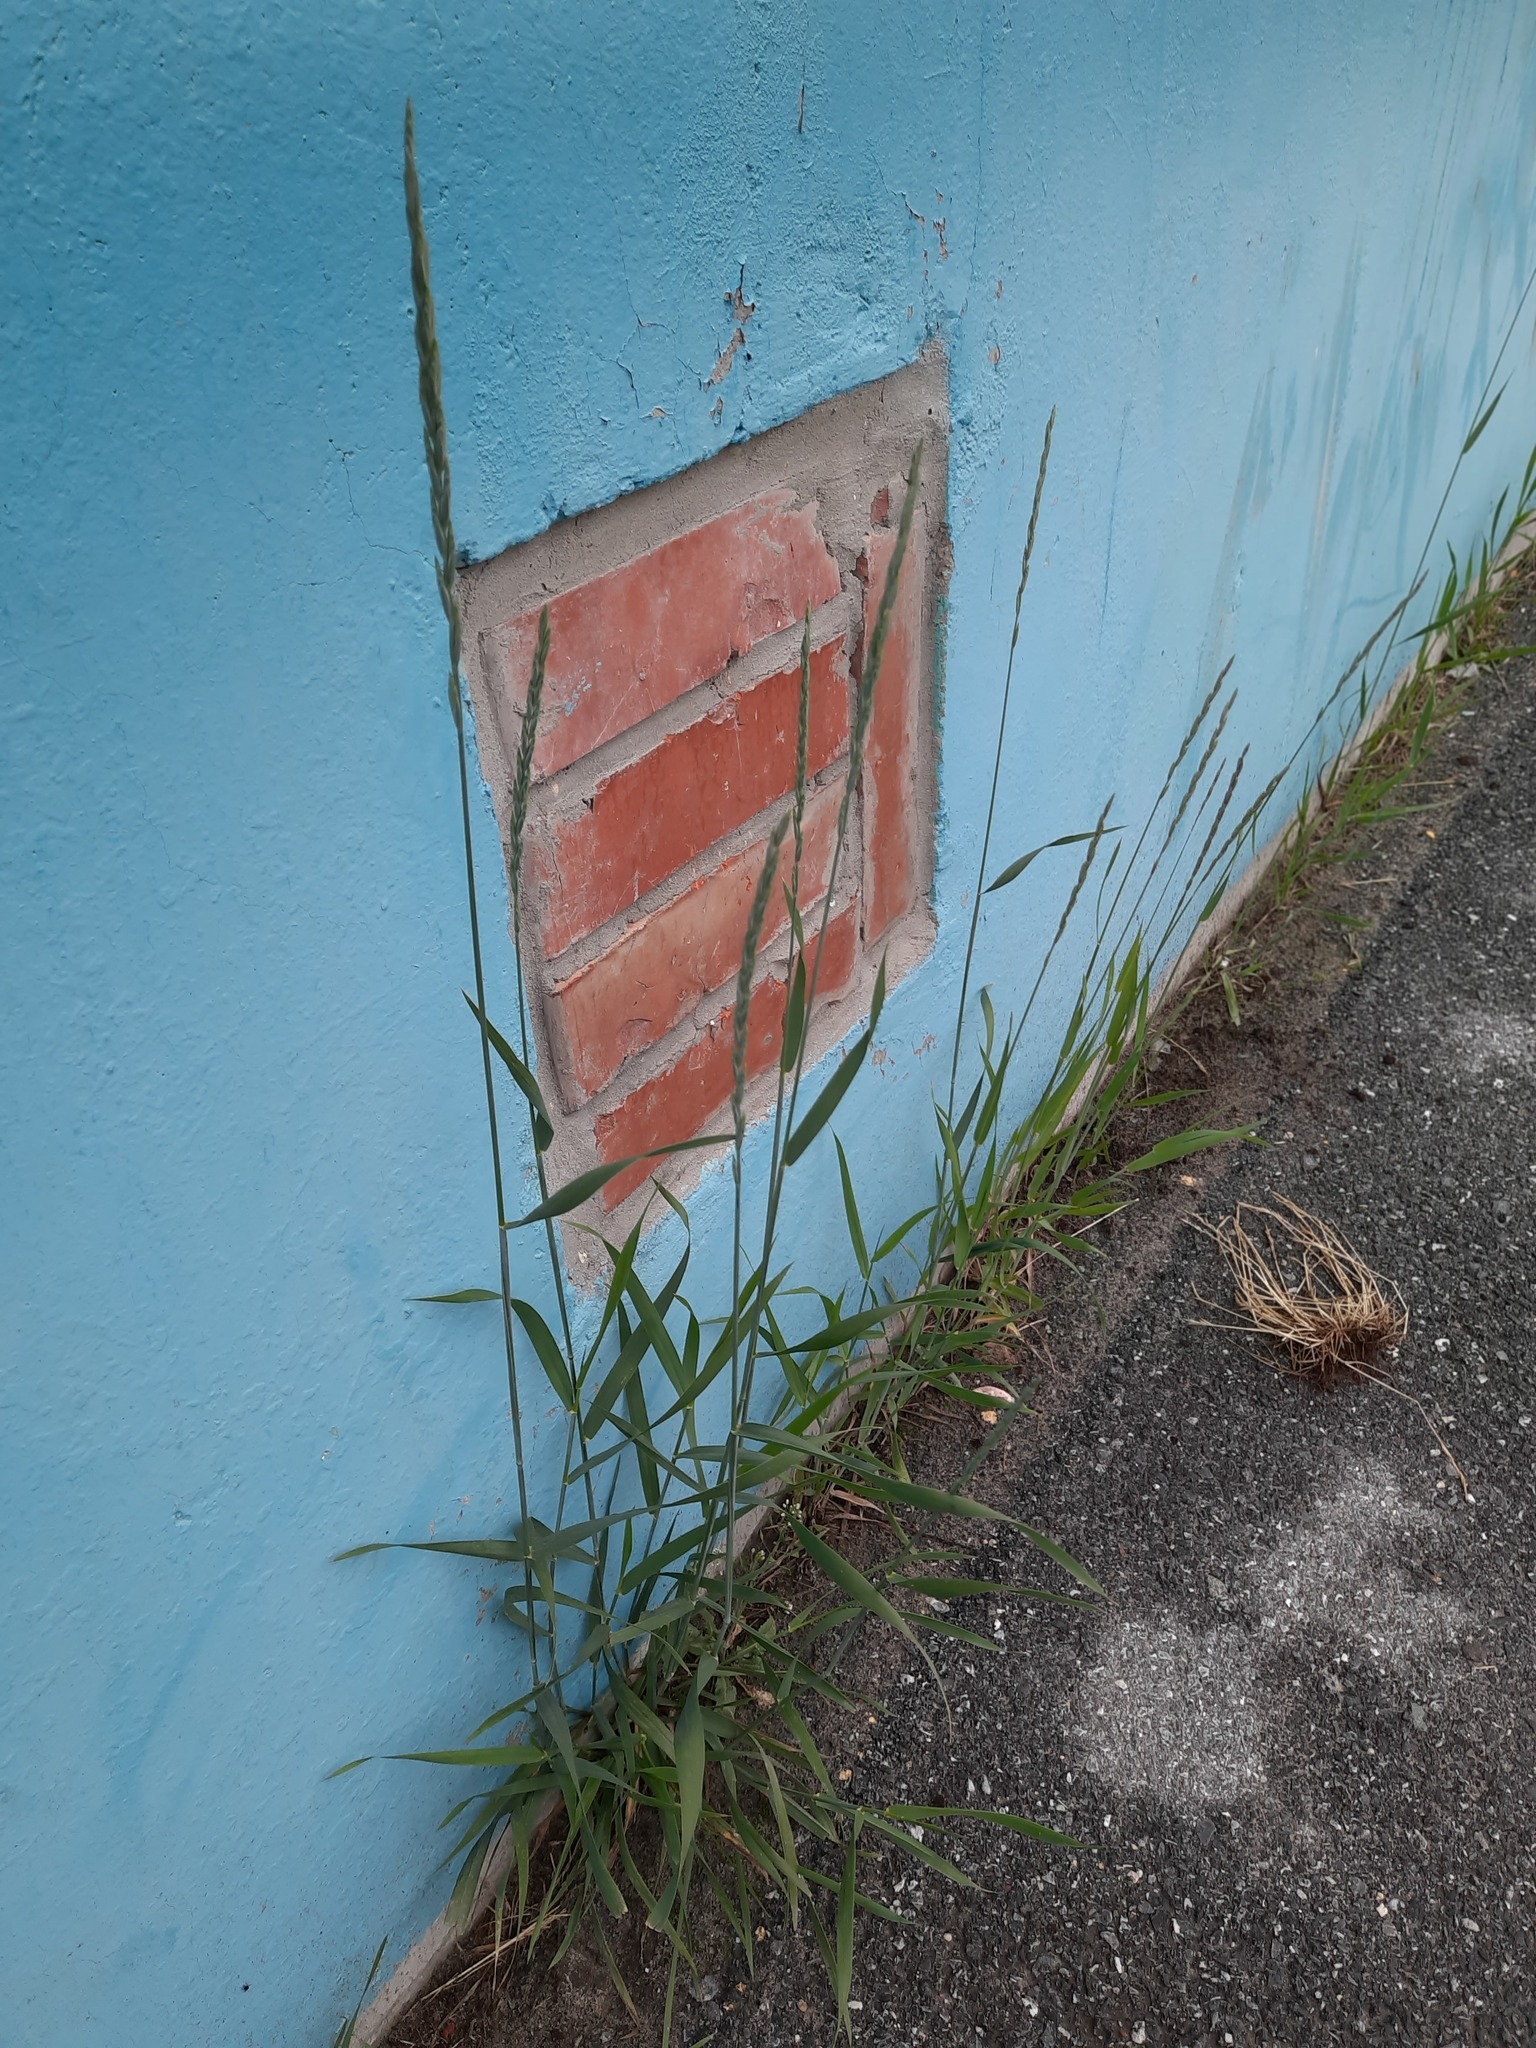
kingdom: Plantae
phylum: Tracheophyta
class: Liliopsida
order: Poales
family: Poaceae
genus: Elymus
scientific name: Elymus repens
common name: Quackgrass
